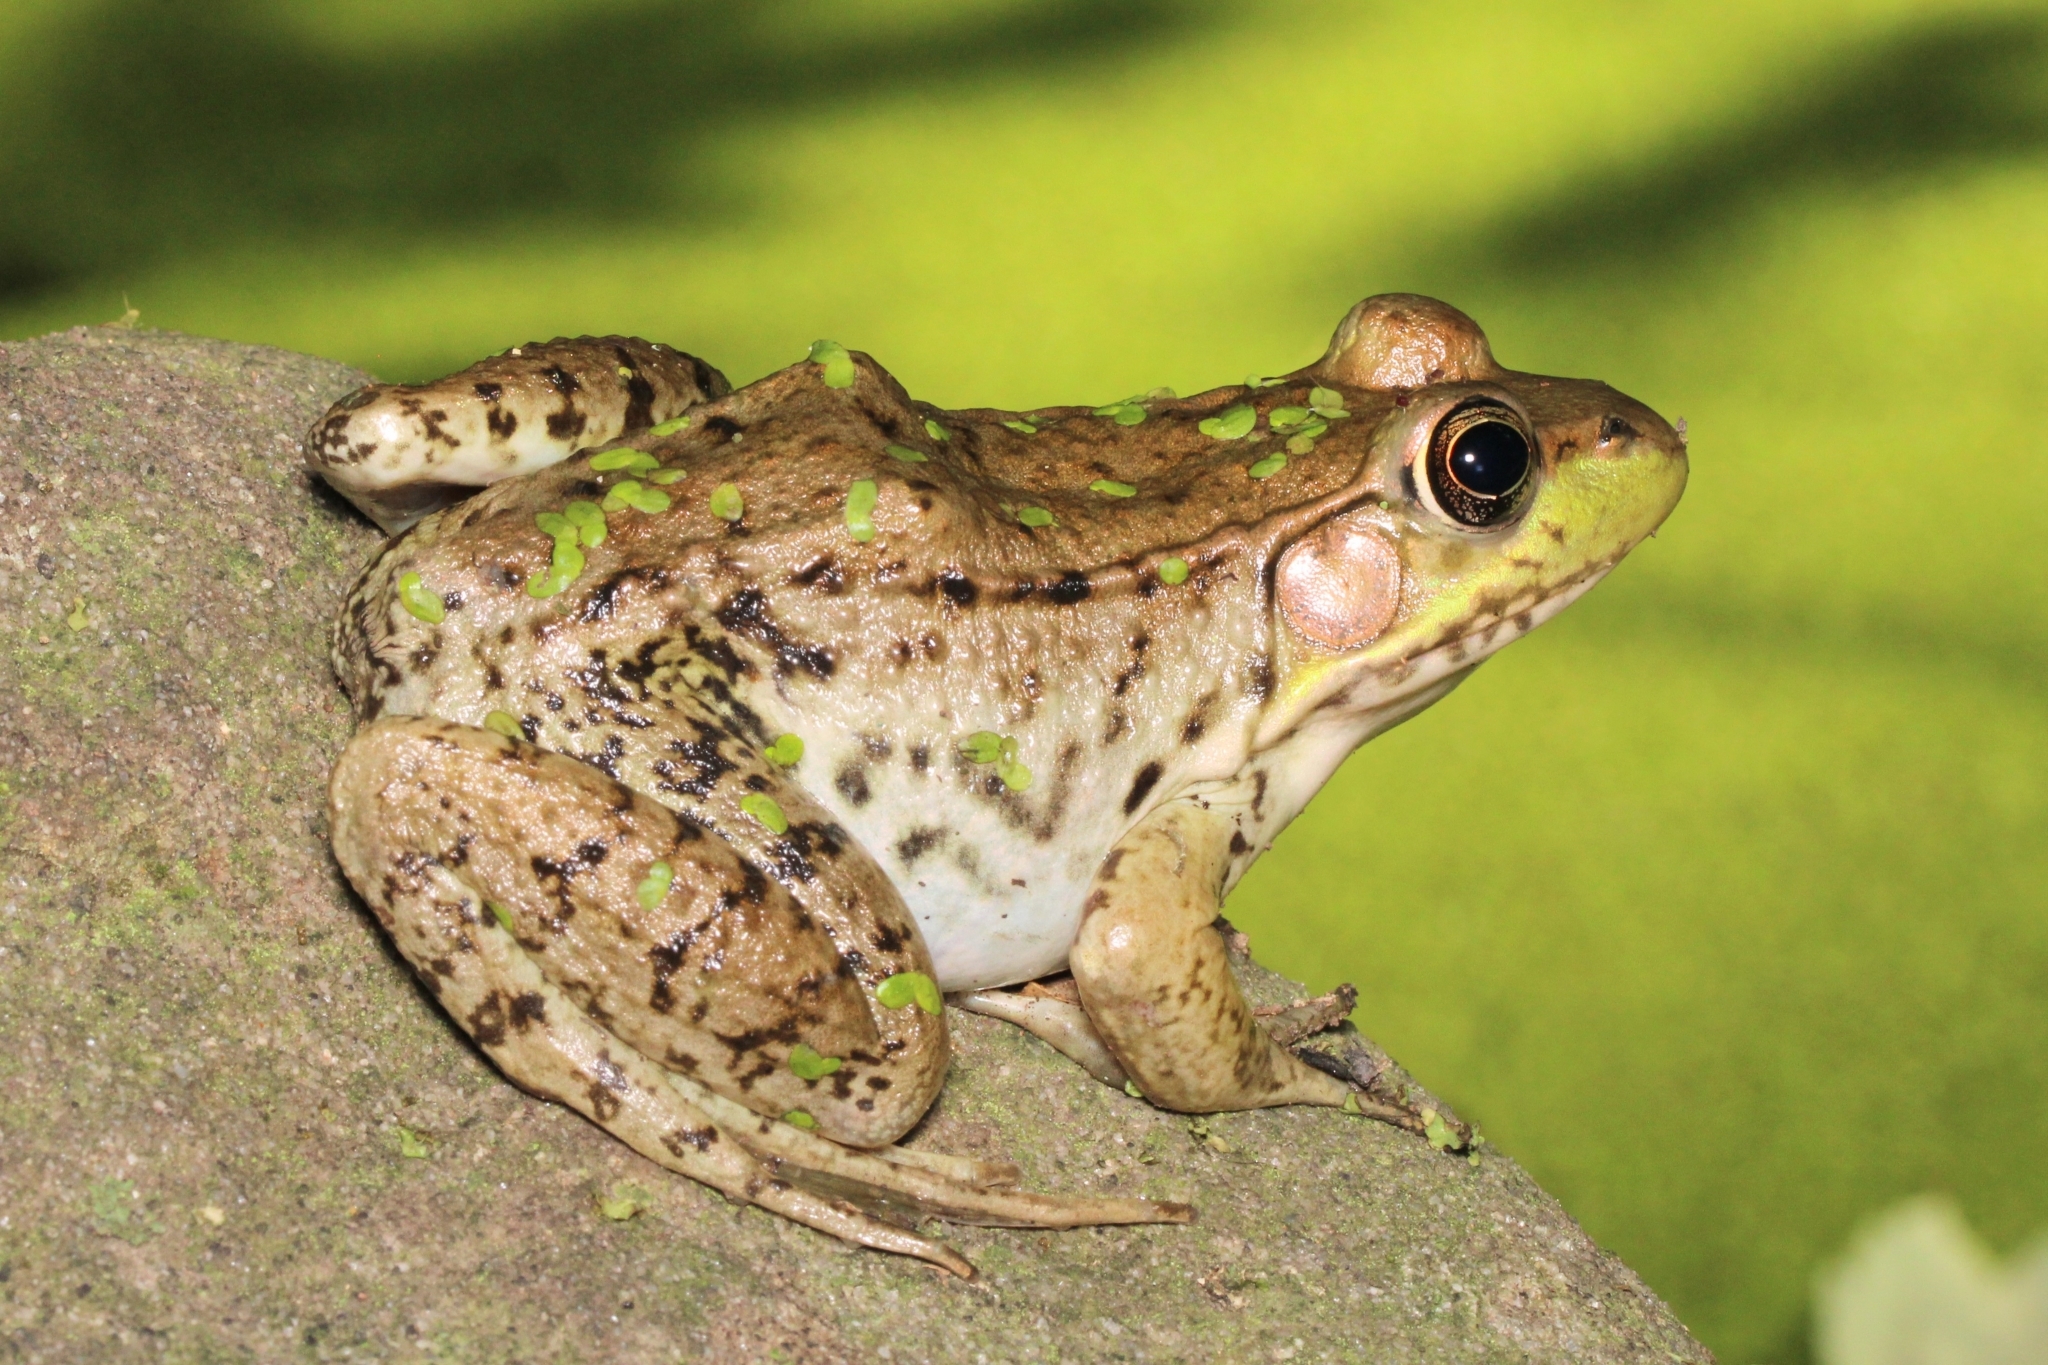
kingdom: Animalia
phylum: Chordata
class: Amphibia
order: Anura
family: Ranidae
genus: Lithobates
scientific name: Lithobates clamitans
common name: Green frog
